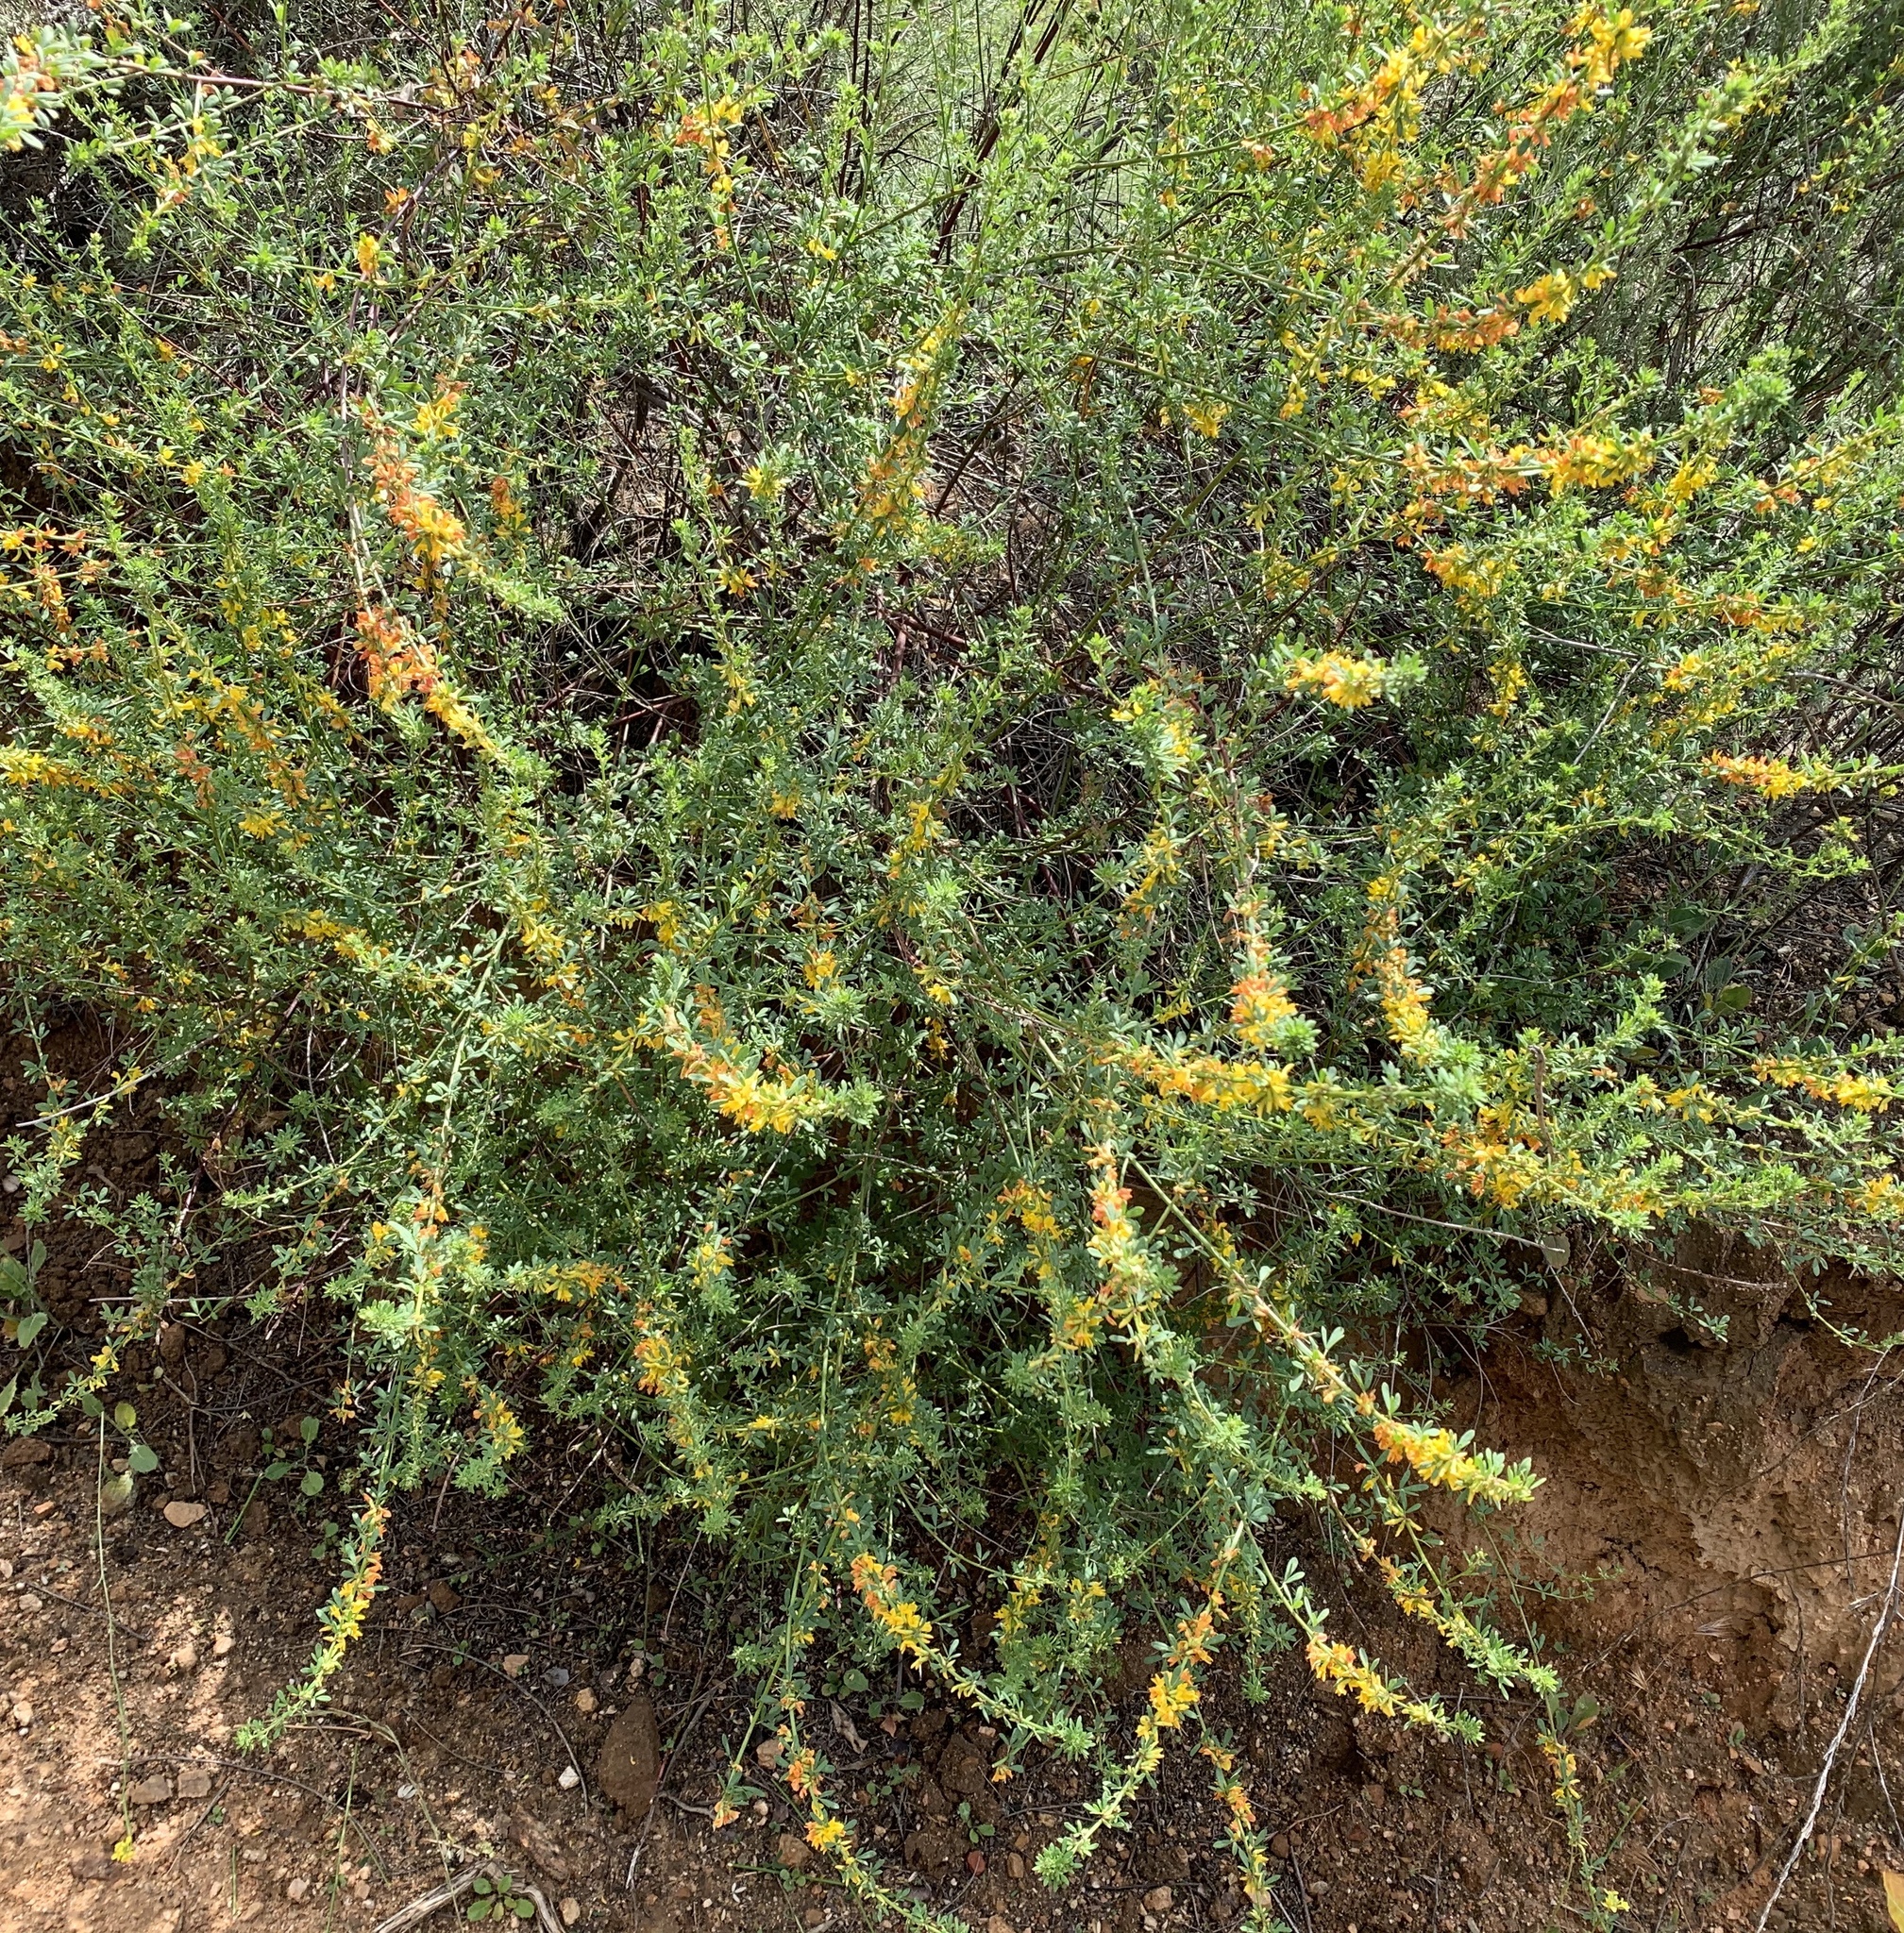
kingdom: Plantae
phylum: Tracheophyta
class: Magnoliopsida
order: Fabales
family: Fabaceae
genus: Acmispon
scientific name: Acmispon glaber
